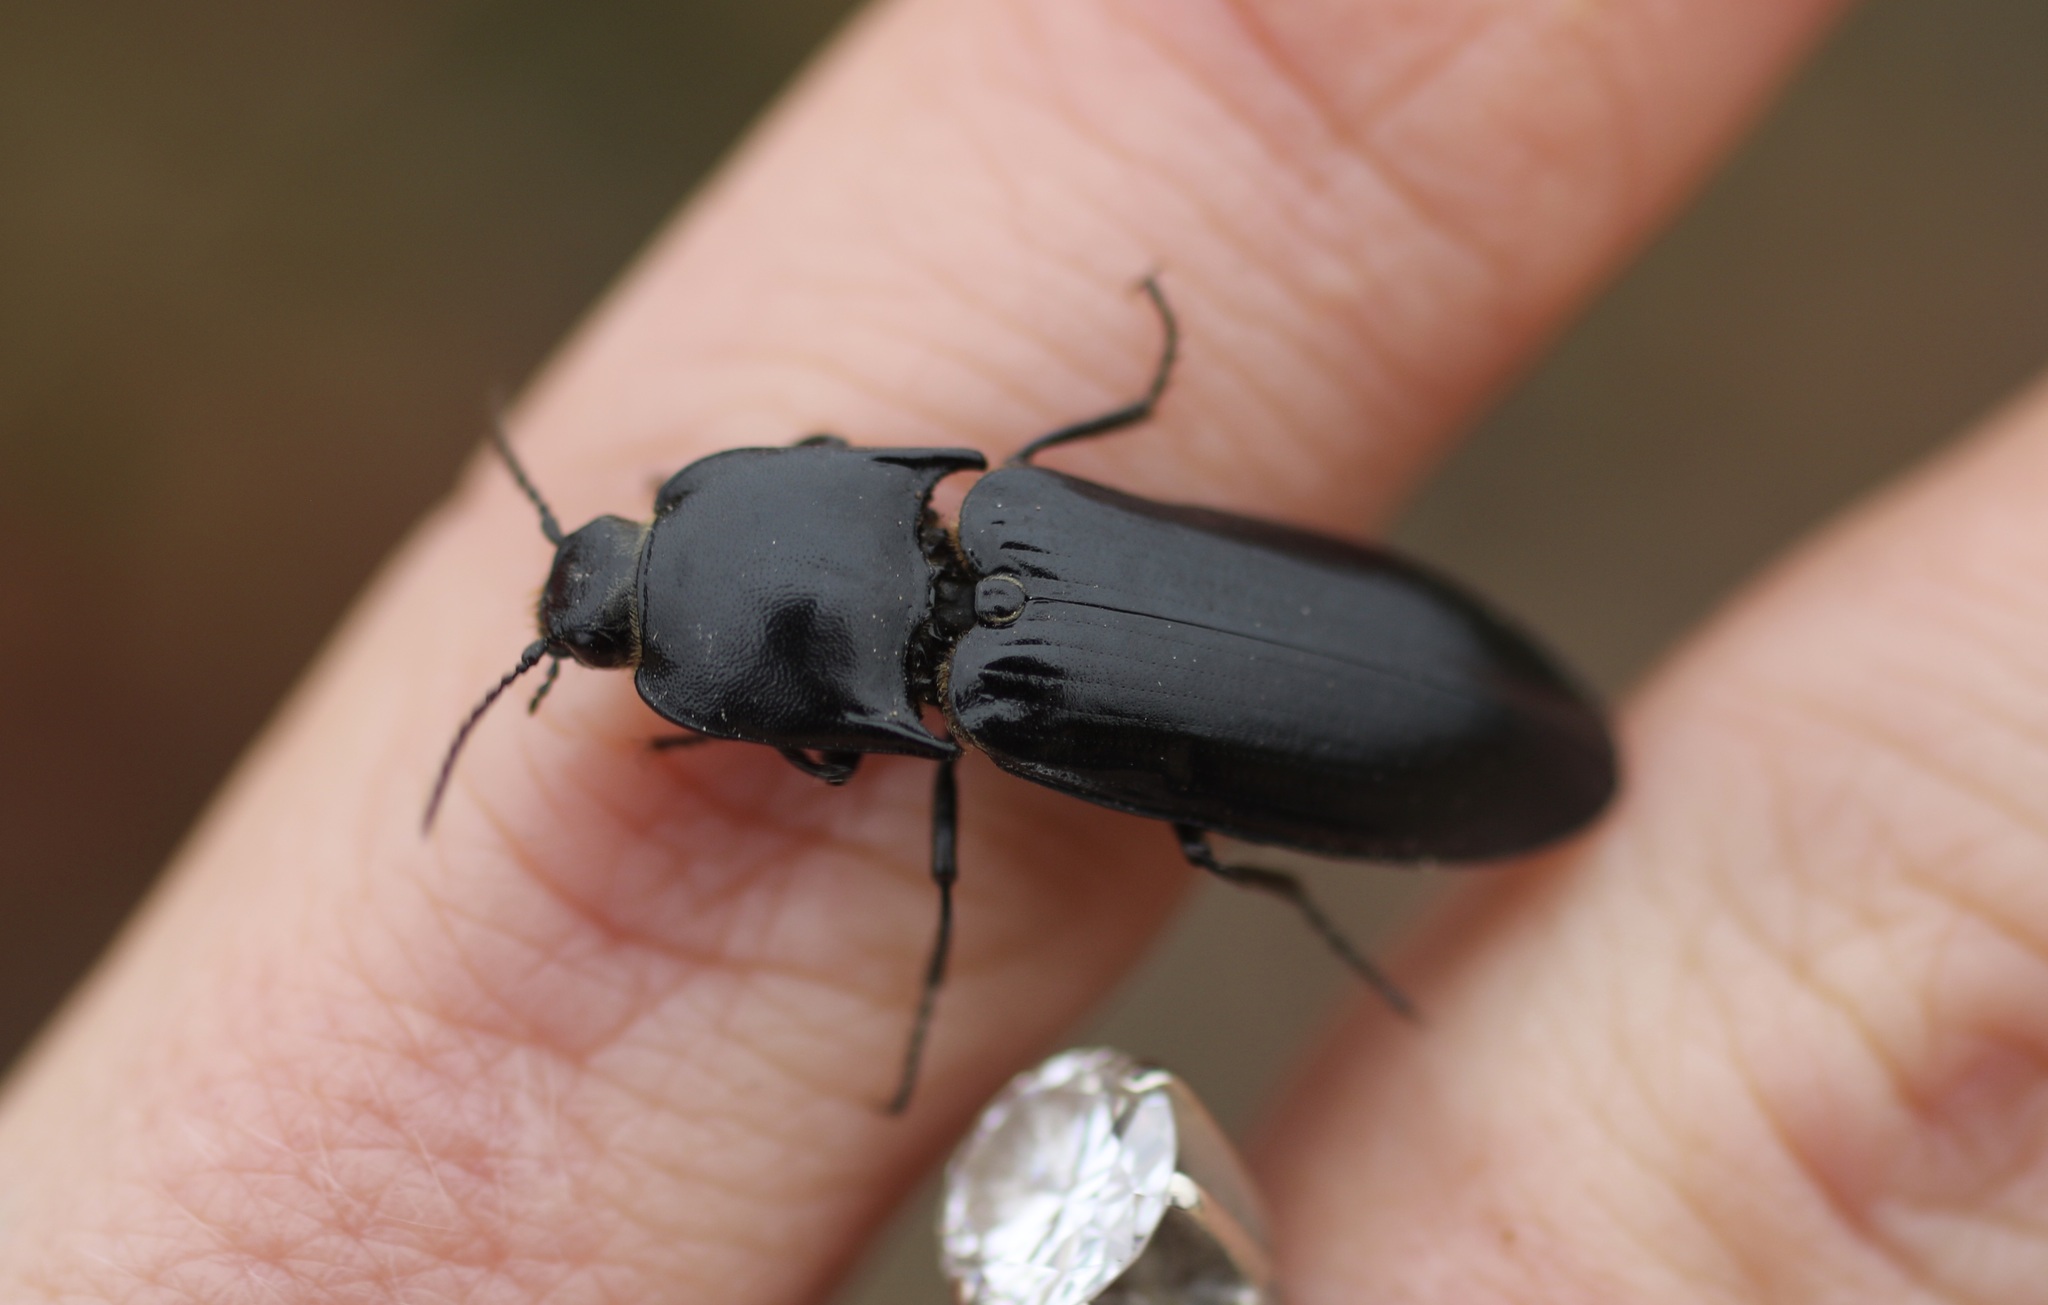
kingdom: Animalia
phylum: Arthropoda
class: Insecta
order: Coleoptera
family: Elateridae
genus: Melanactes
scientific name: Melanactes
